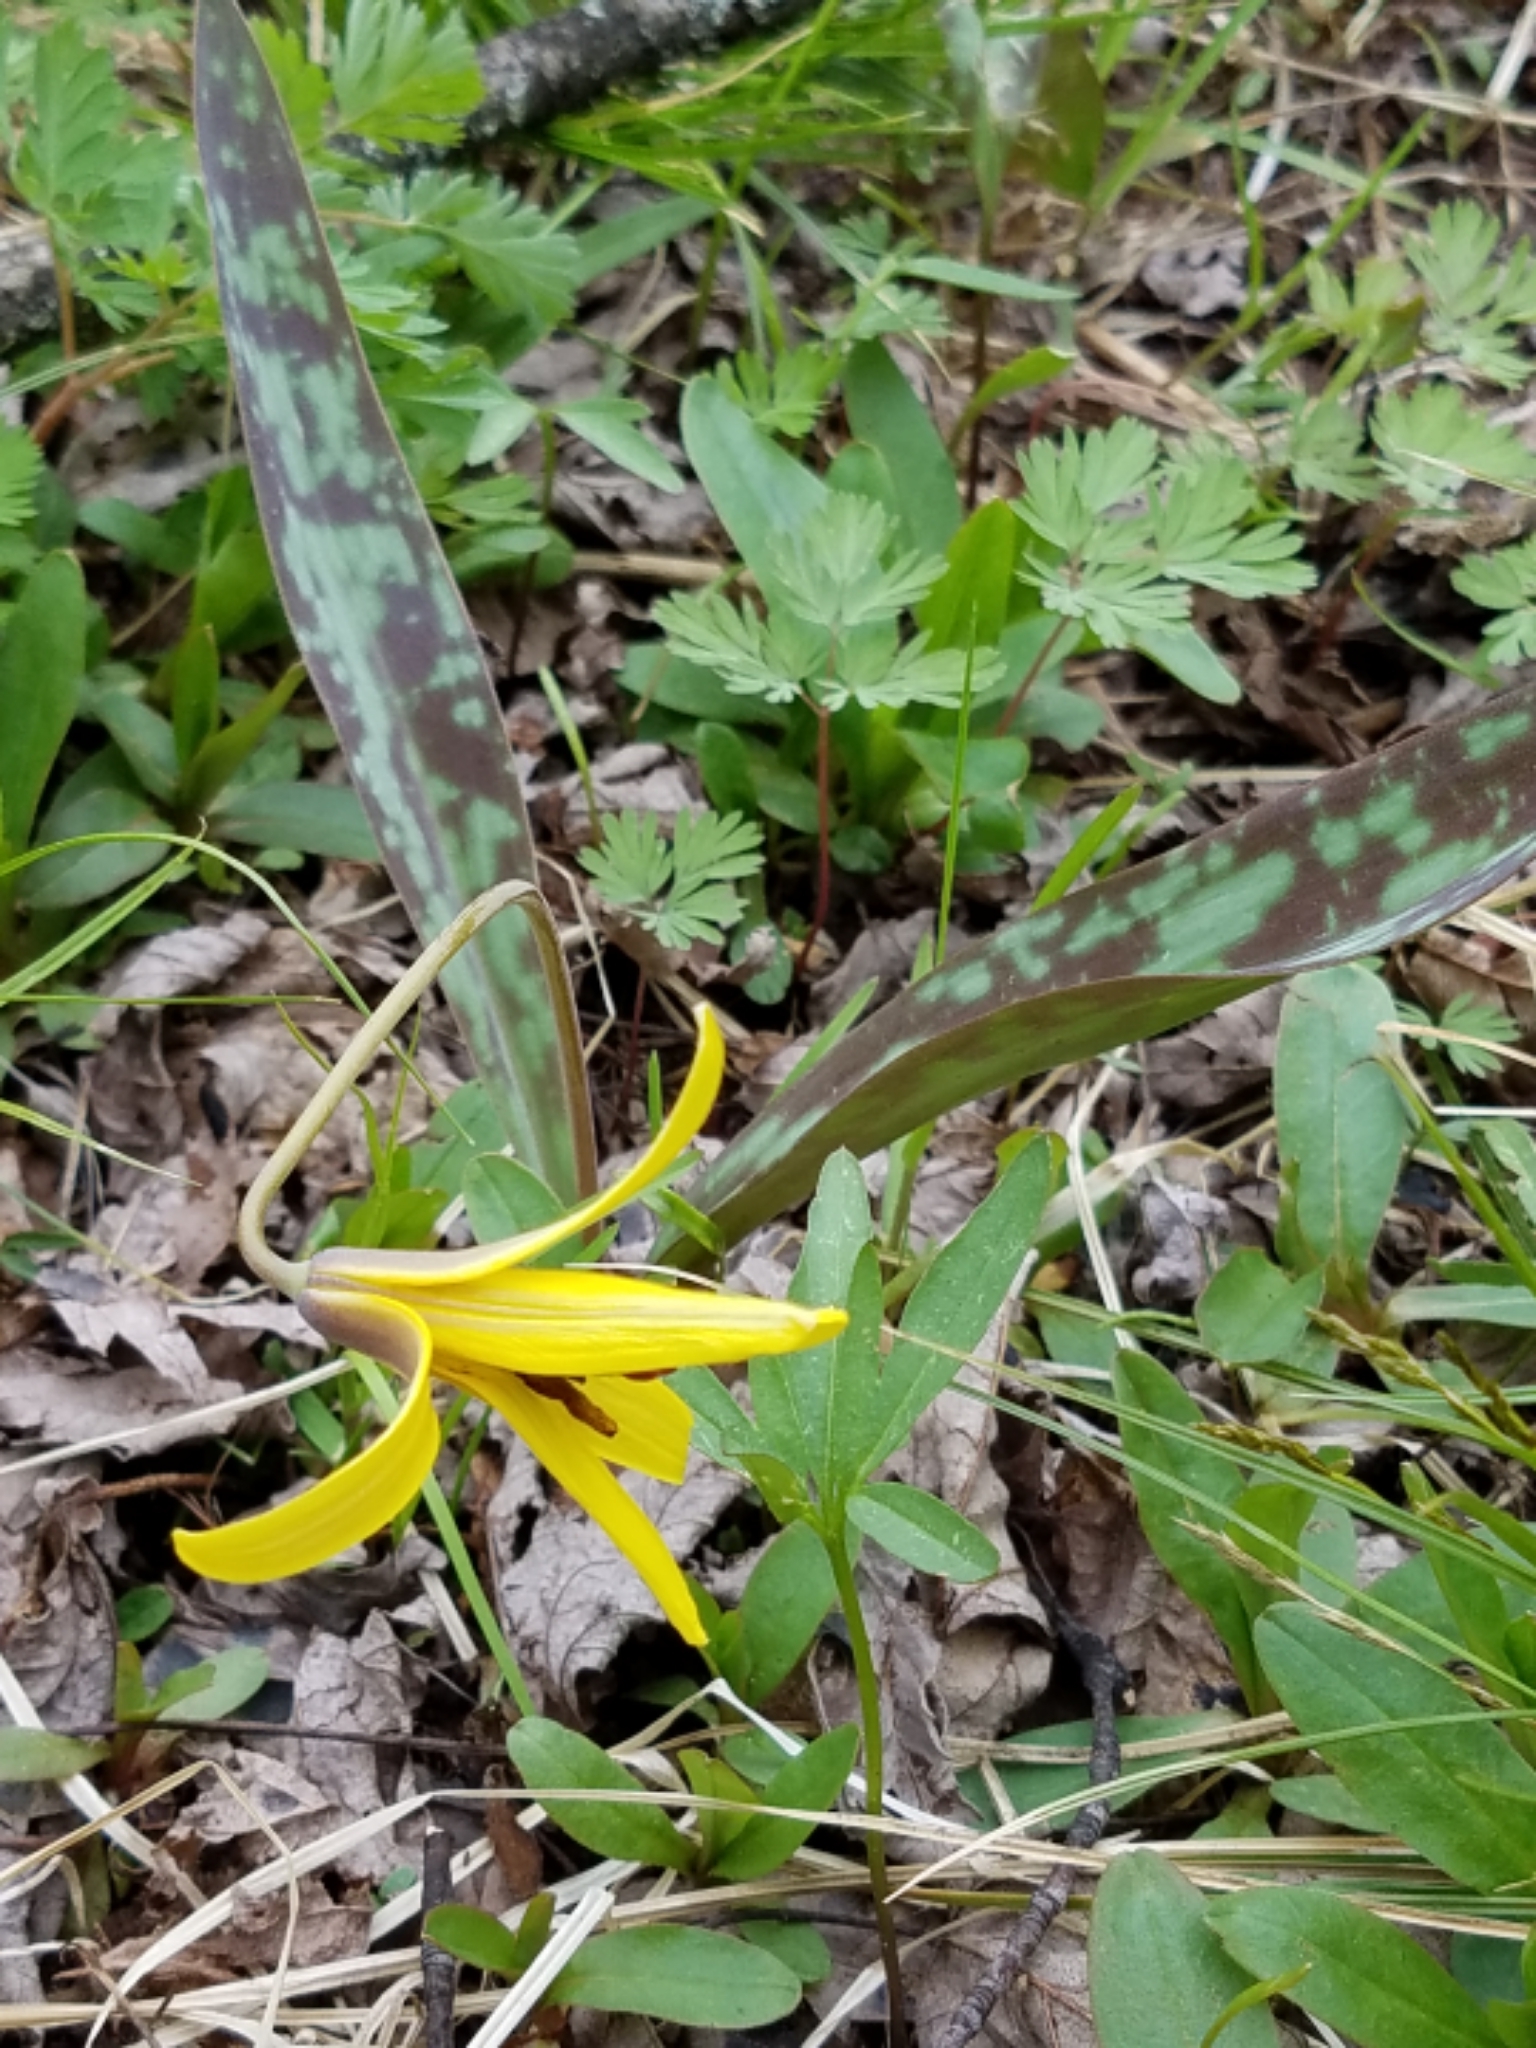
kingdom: Plantae
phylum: Tracheophyta
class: Liliopsida
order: Liliales
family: Liliaceae
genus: Erythronium
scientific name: Erythronium americanum
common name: Yellow adder's-tongue
